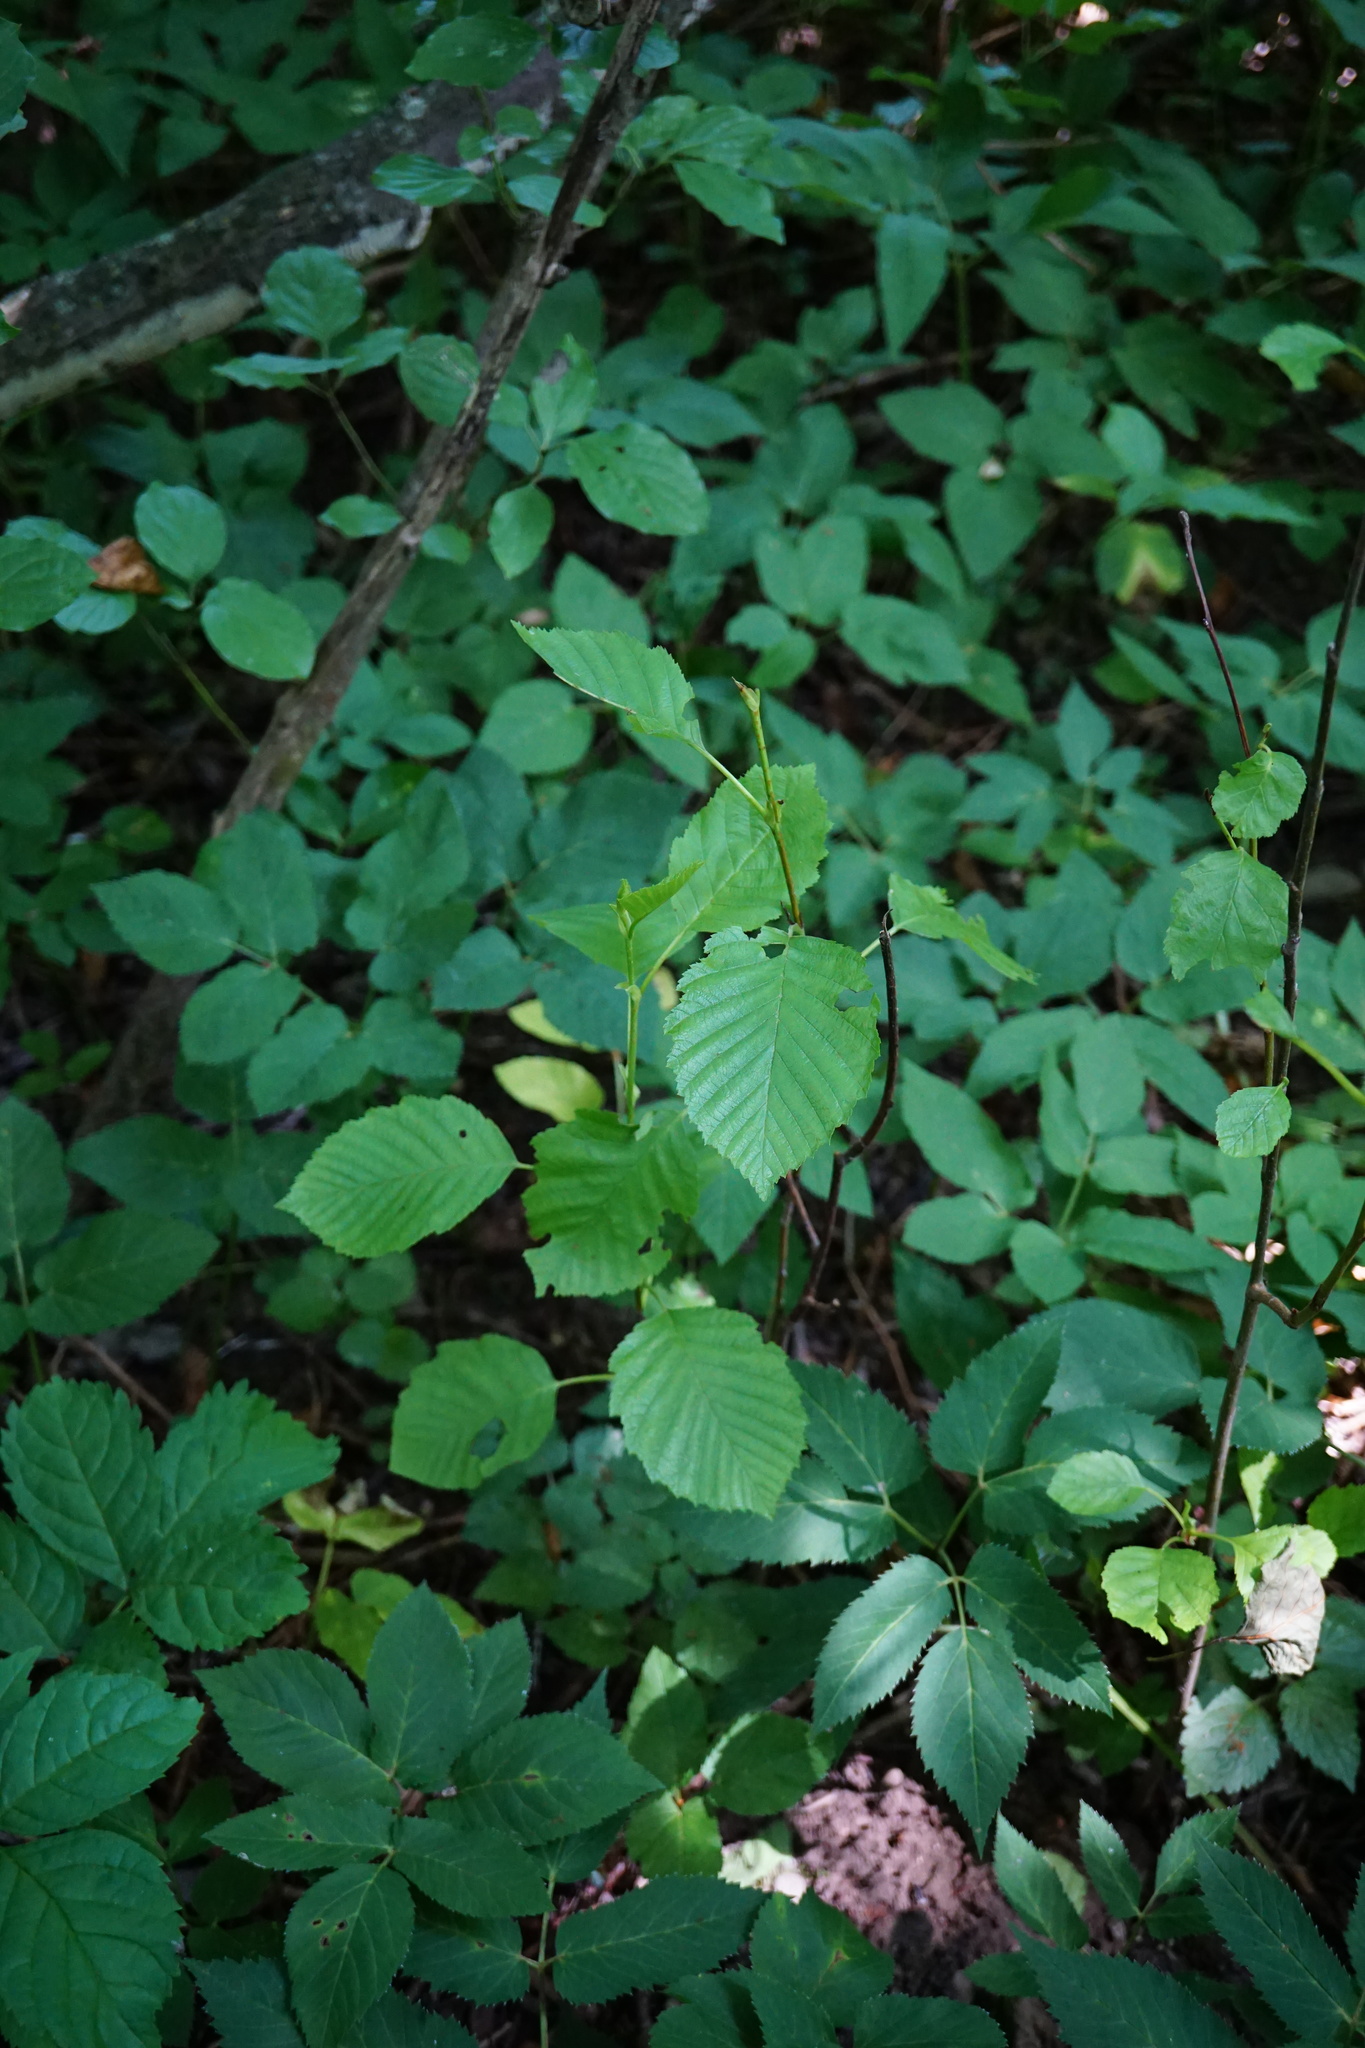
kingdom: Plantae
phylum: Tracheophyta
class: Magnoliopsida
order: Fagales
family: Betulaceae
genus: Alnus
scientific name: Alnus incana
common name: Grey alder
